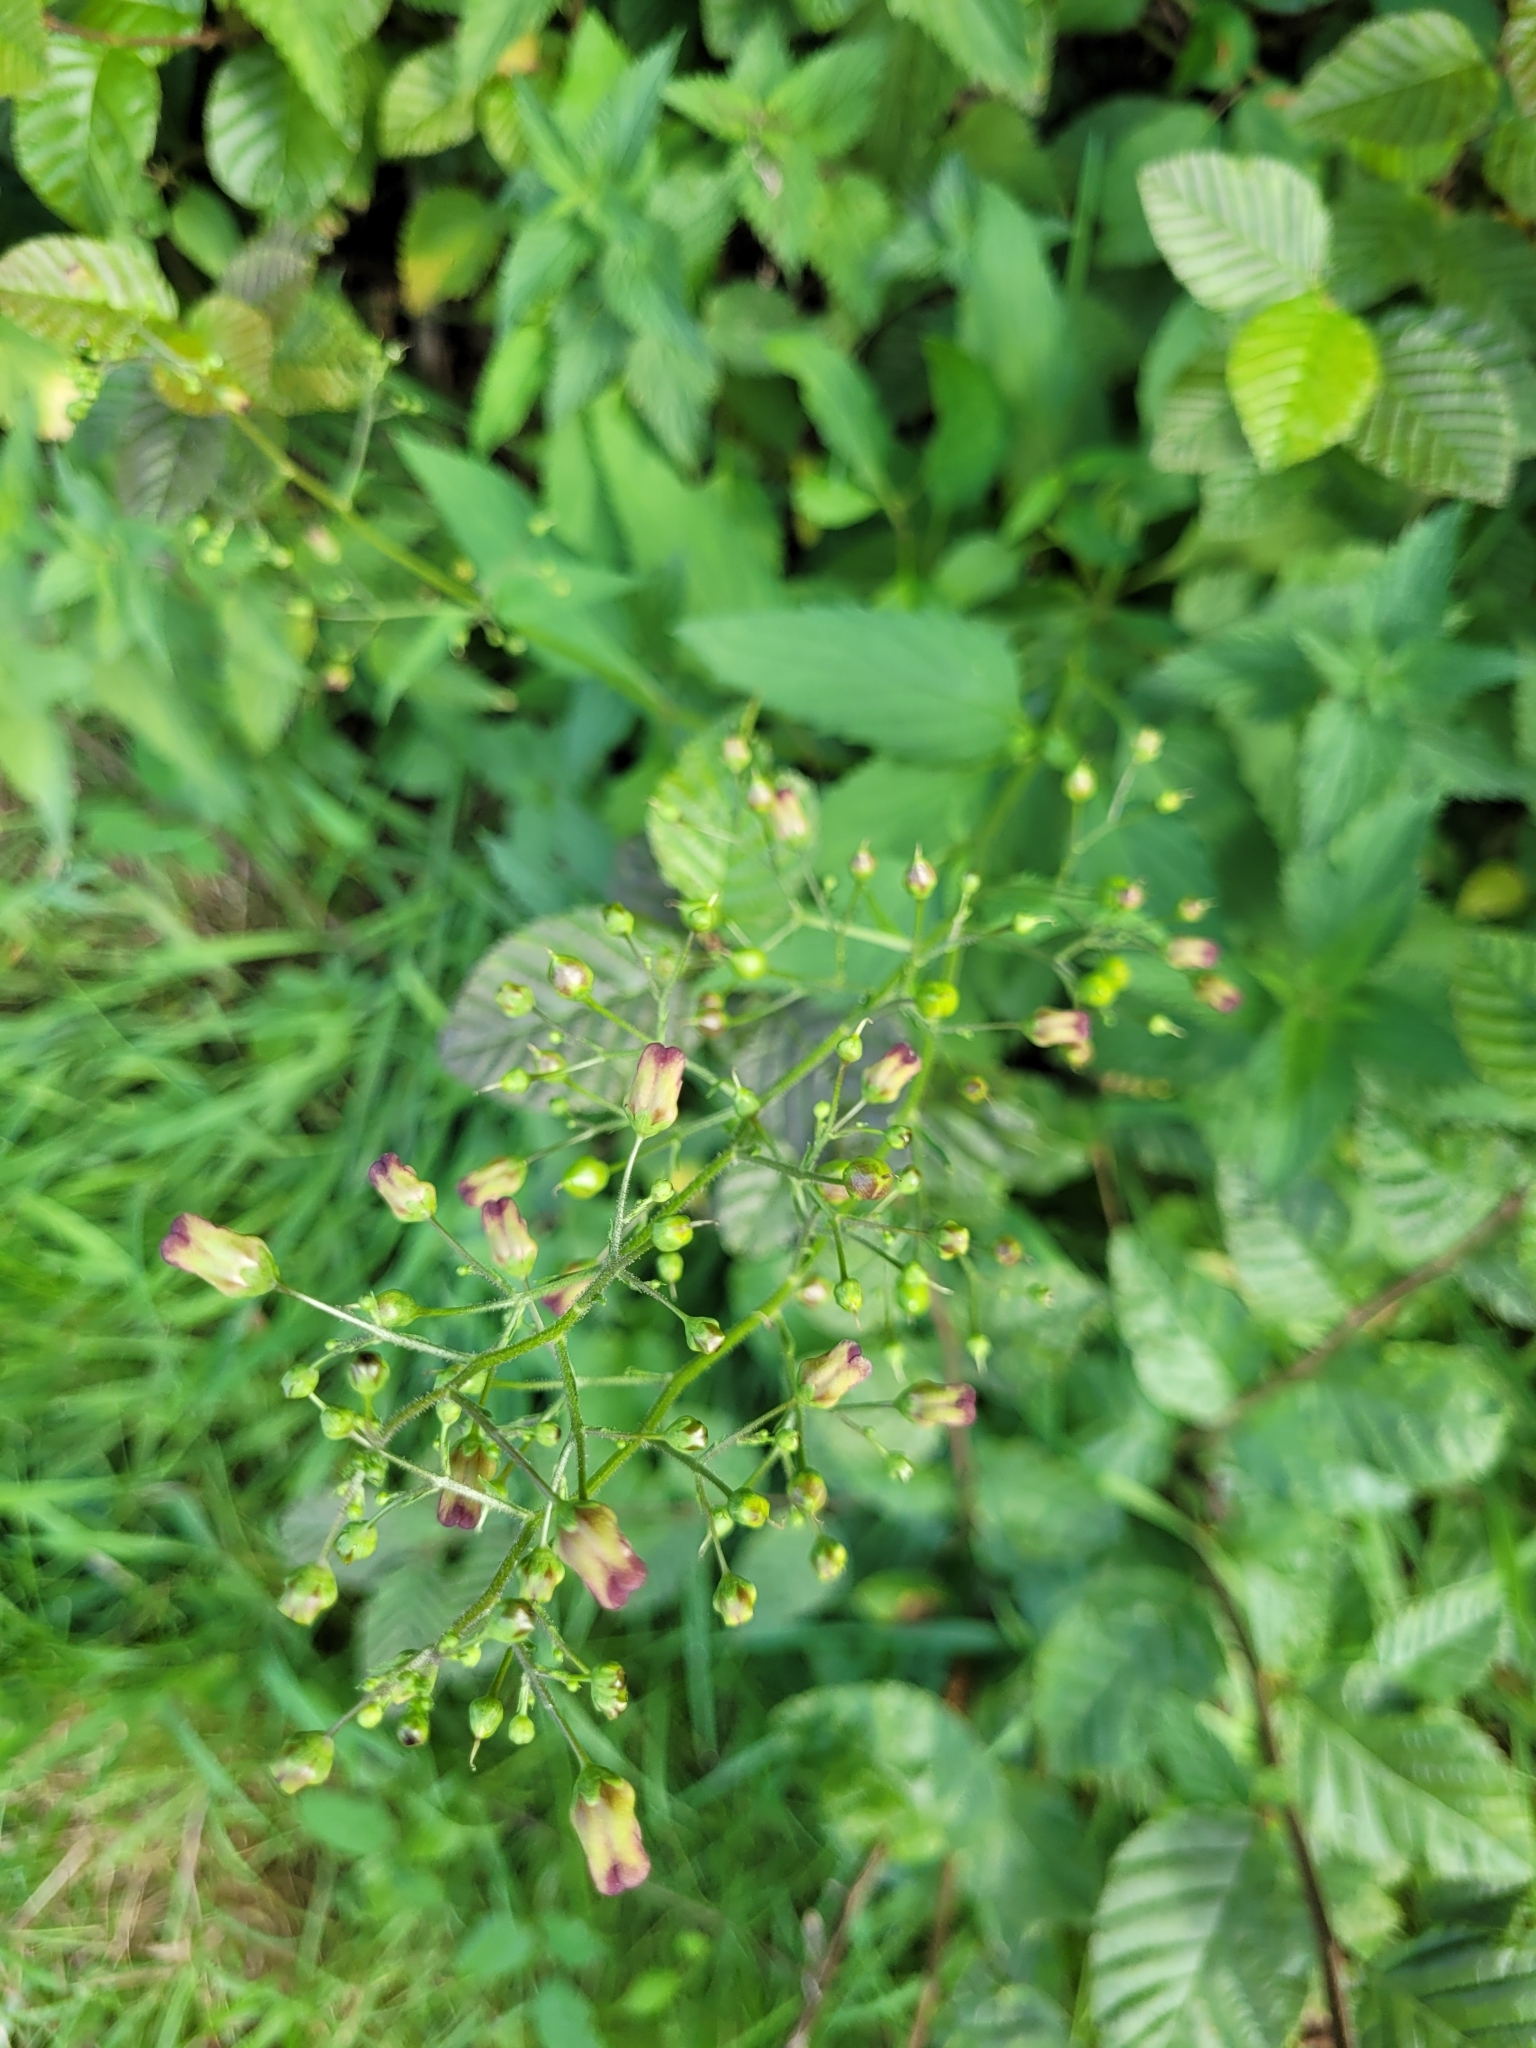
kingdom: Plantae
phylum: Tracheophyta
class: Magnoliopsida
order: Lamiales
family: Scrophulariaceae
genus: Scrophularia
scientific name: Scrophularia nodosa
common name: Common figwort
